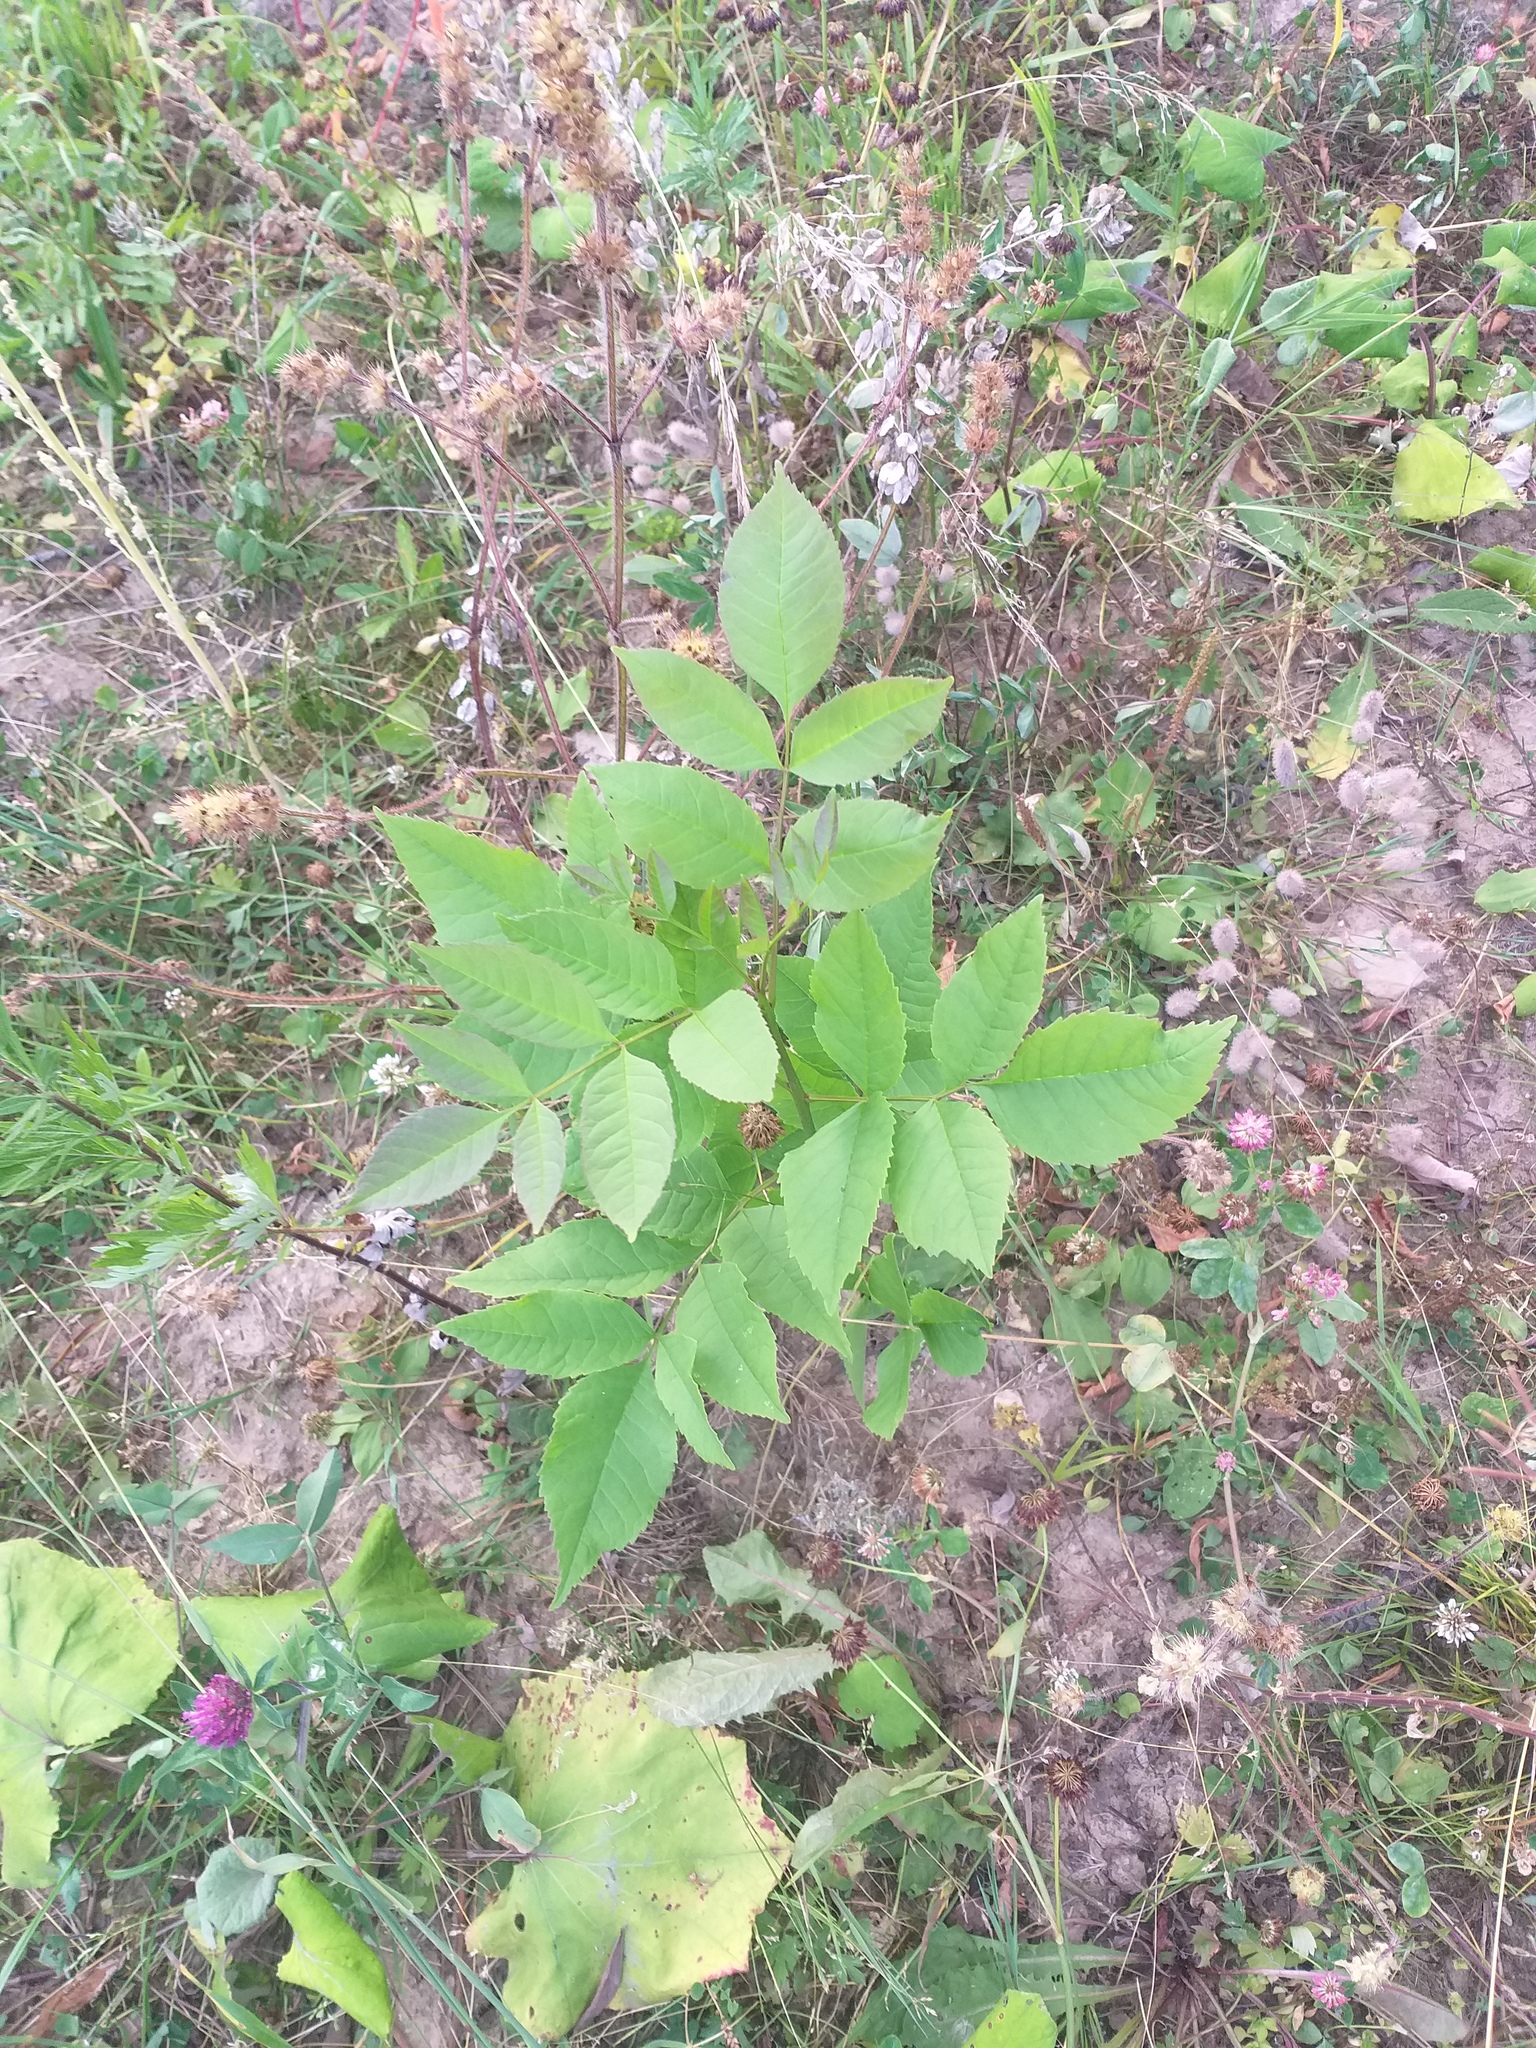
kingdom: Plantae
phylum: Tracheophyta
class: Magnoliopsida
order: Lamiales
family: Oleaceae
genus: Fraxinus
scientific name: Fraxinus pennsylvanica
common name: Green ash
